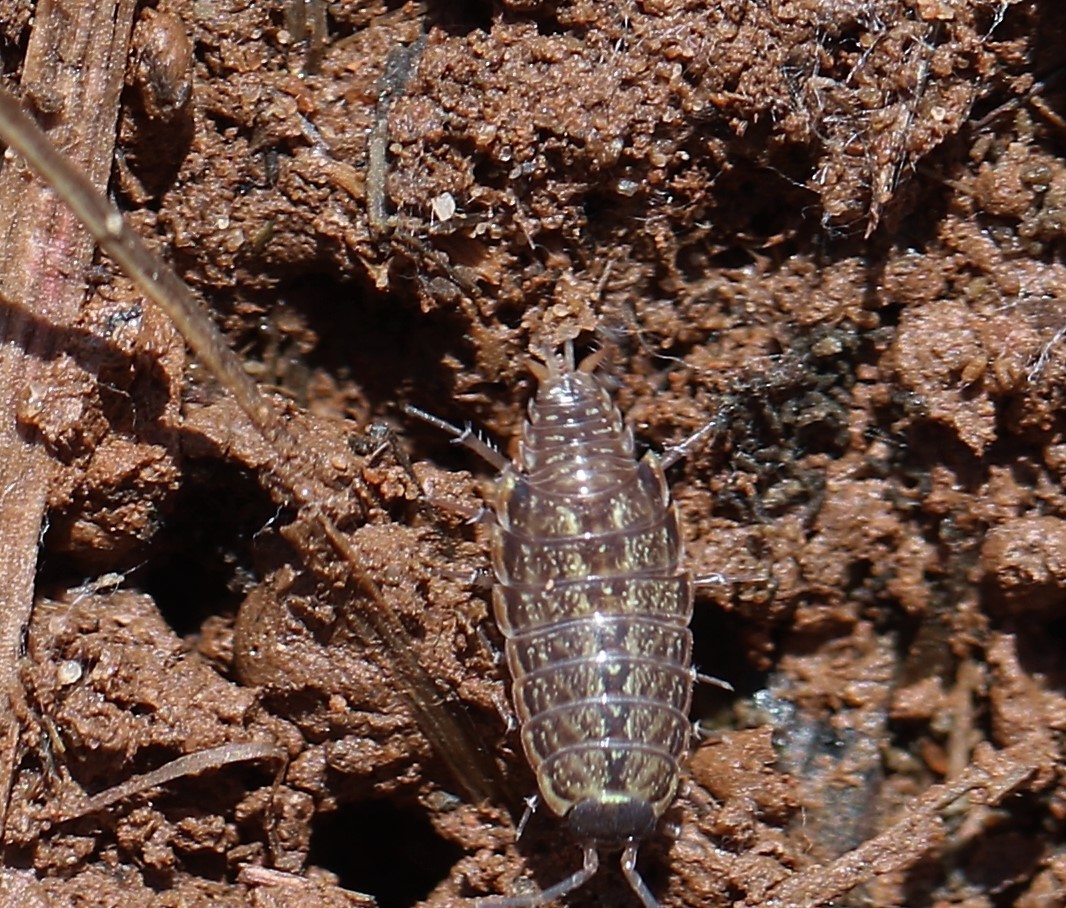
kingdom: Animalia
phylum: Arthropoda
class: Malacostraca
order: Isopoda
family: Philosciidae
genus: Philoscia
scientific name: Philoscia muscorum
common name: Common striped woodlouse
